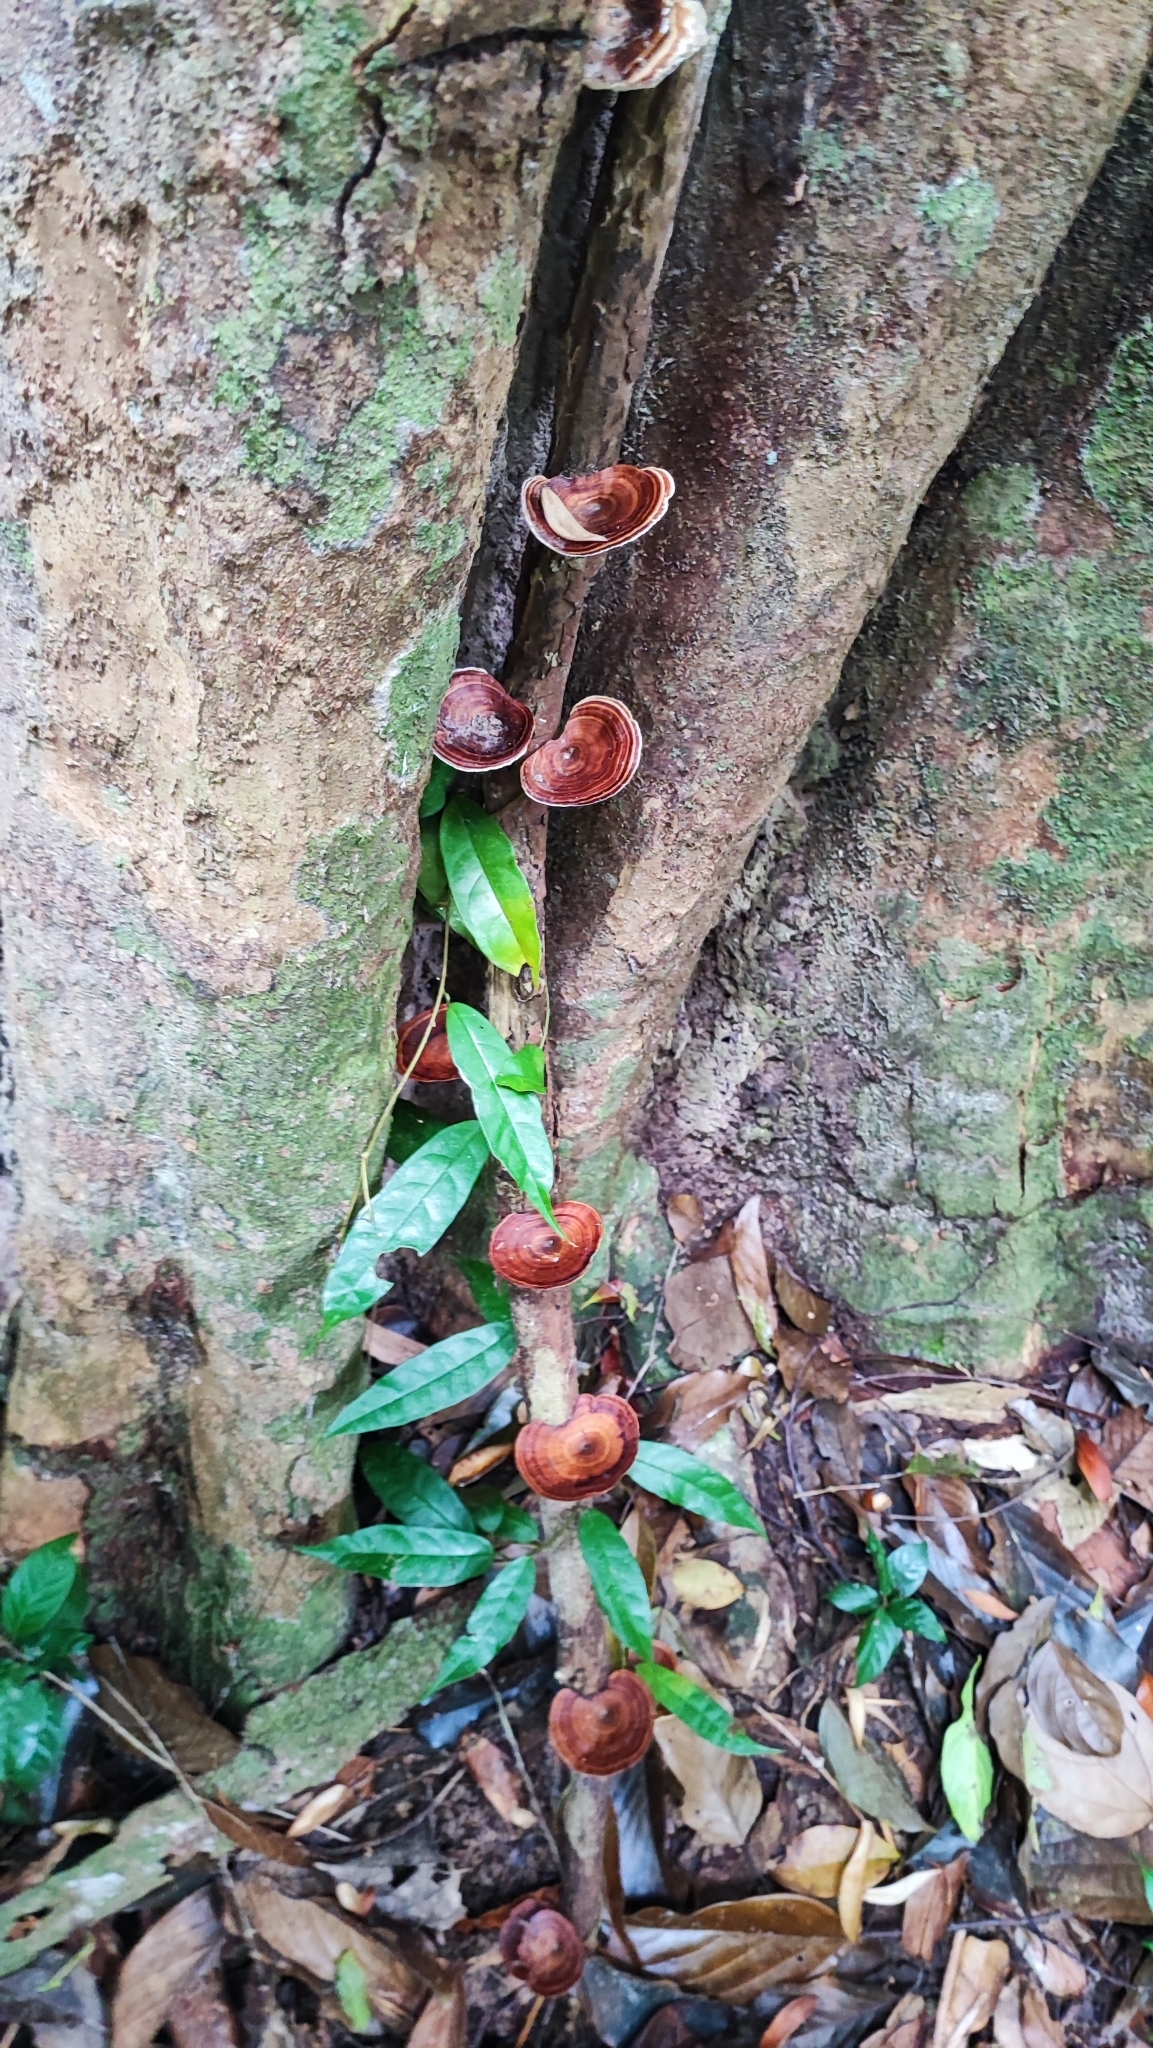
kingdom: Fungi
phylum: Basidiomycota
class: Agaricomycetes
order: Polyporales
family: Polyporaceae
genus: Microporus
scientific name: Microporus xanthopus
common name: Yellow-stemmed micropore
